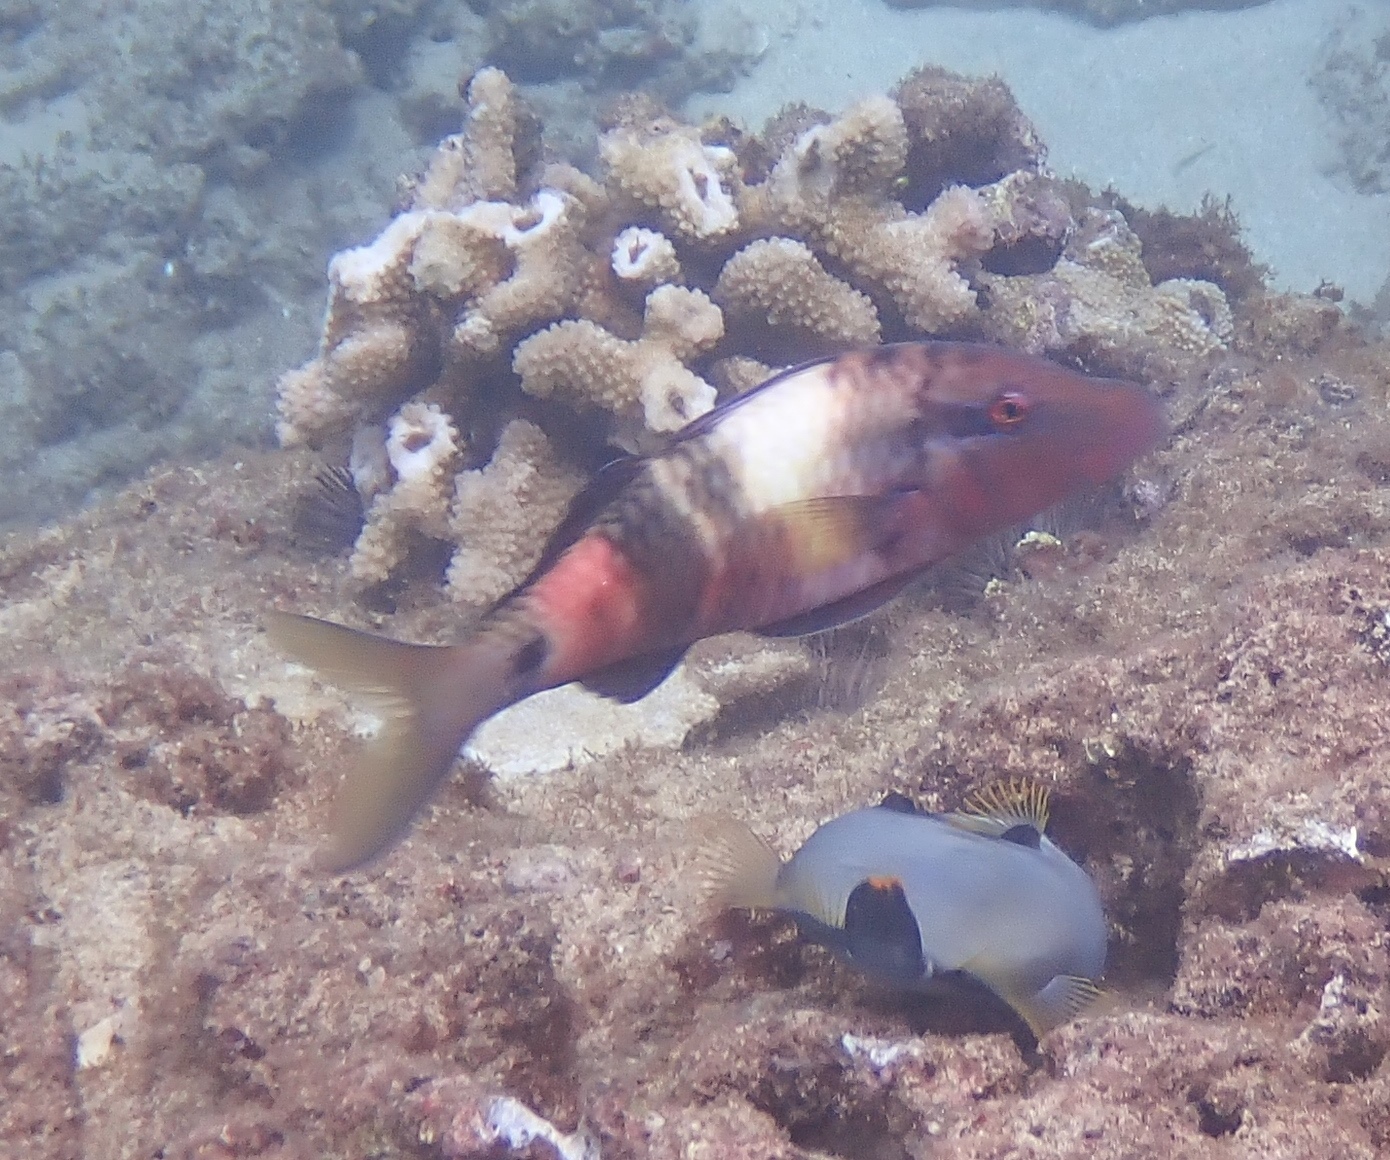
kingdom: Animalia
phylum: Chordata
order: Perciformes
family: Mullidae
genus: Parupeneus
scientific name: Parupeneus multifasciatus
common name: Manybar goatfish
